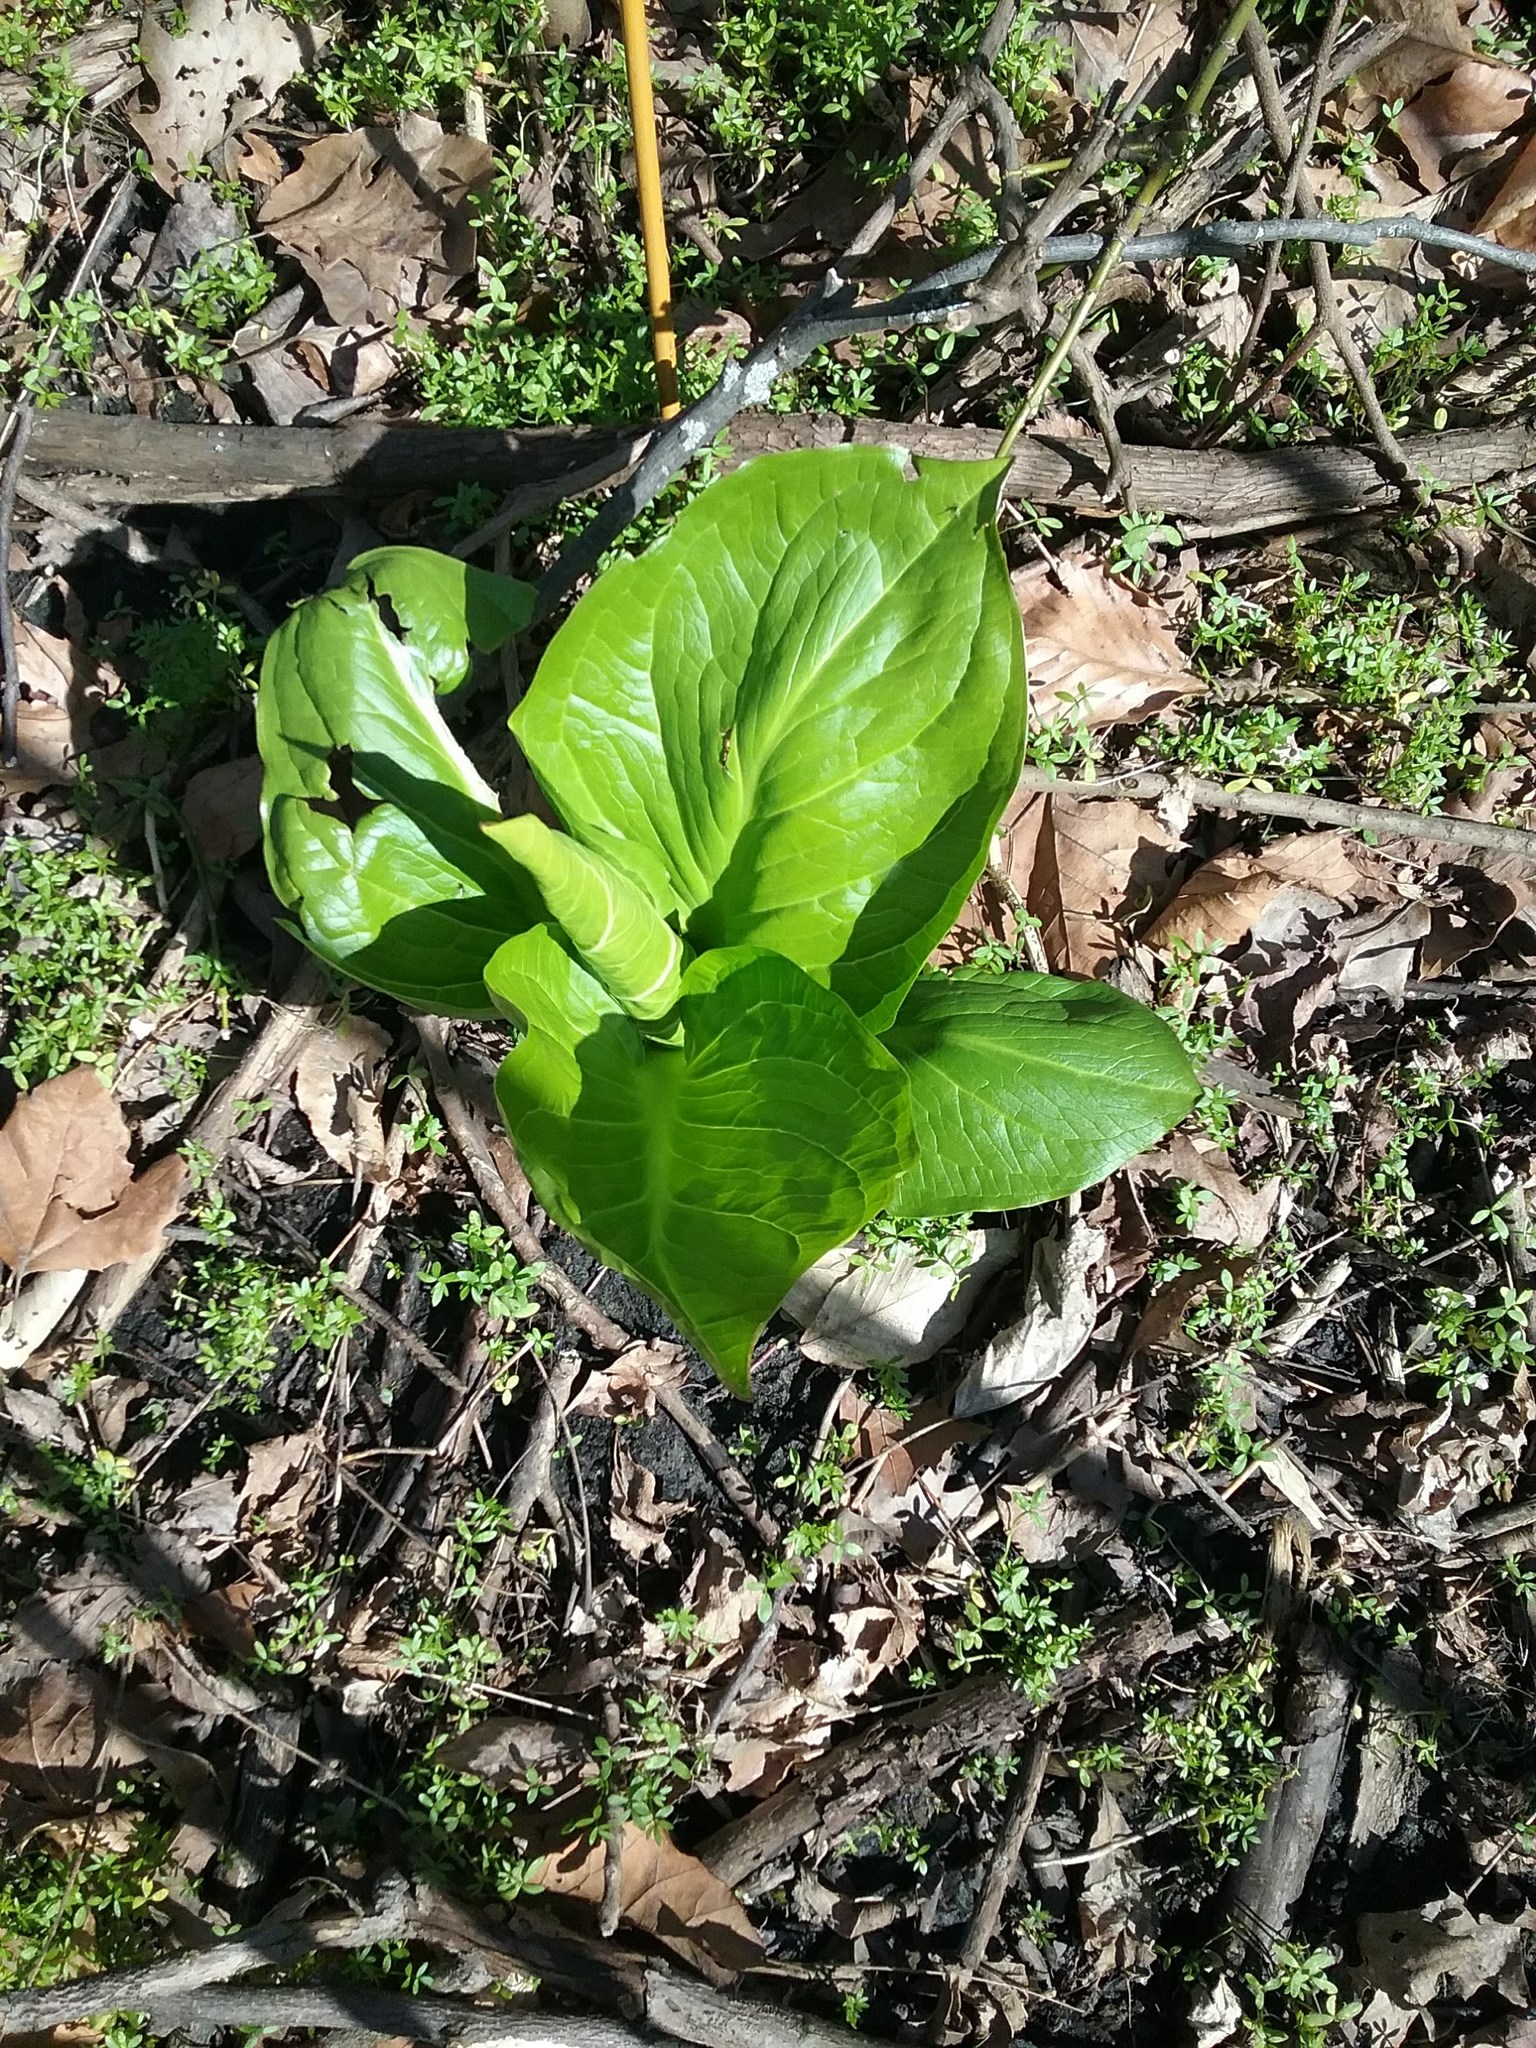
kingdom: Plantae
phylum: Tracheophyta
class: Liliopsida
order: Alismatales
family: Araceae
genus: Symplocarpus
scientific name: Symplocarpus foetidus
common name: Eastern skunk cabbage
